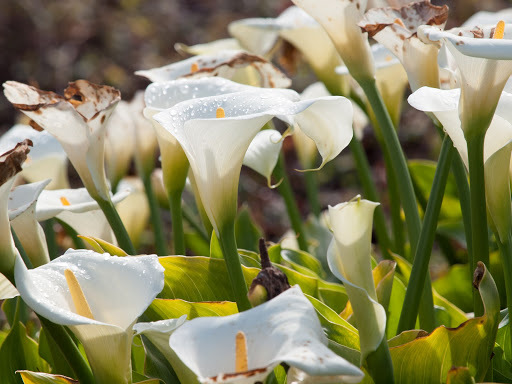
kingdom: Plantae
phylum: Tracheophyta
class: Liliopsida
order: Alismatales
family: Araceae
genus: Zantedeschia
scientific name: Zantedeschia aethiopica
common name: Altar-lily
